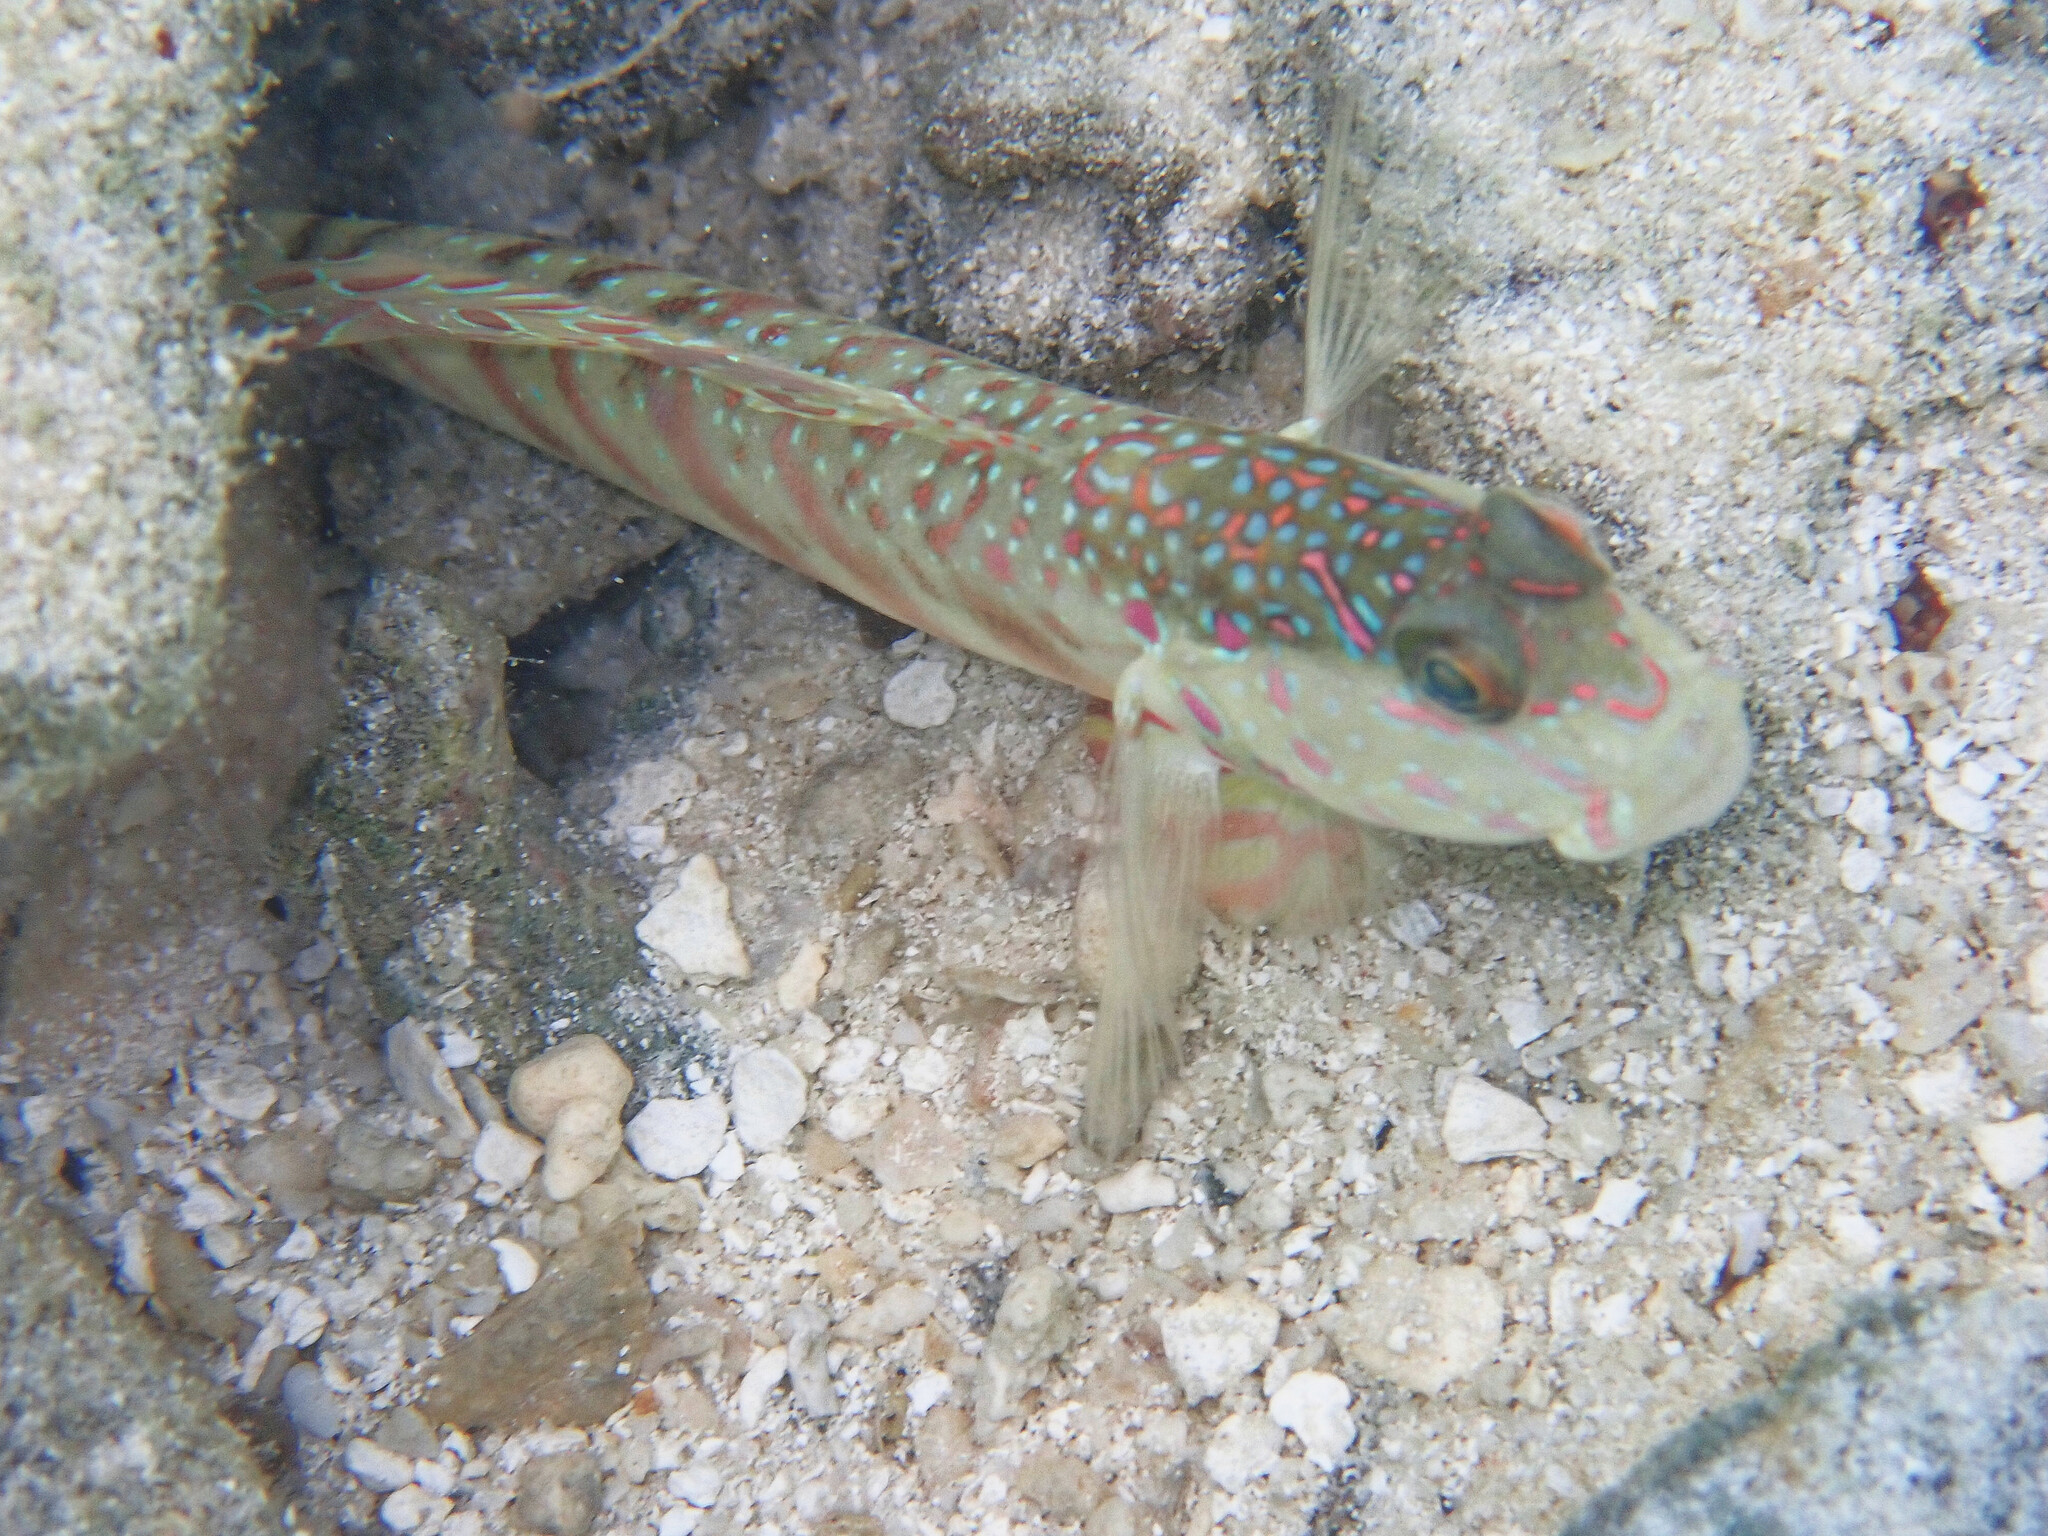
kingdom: Animalia
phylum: Chordata
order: Perciformes
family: Gobiidae
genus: Cryptocentrus
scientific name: Cryptocentrus melanopus
